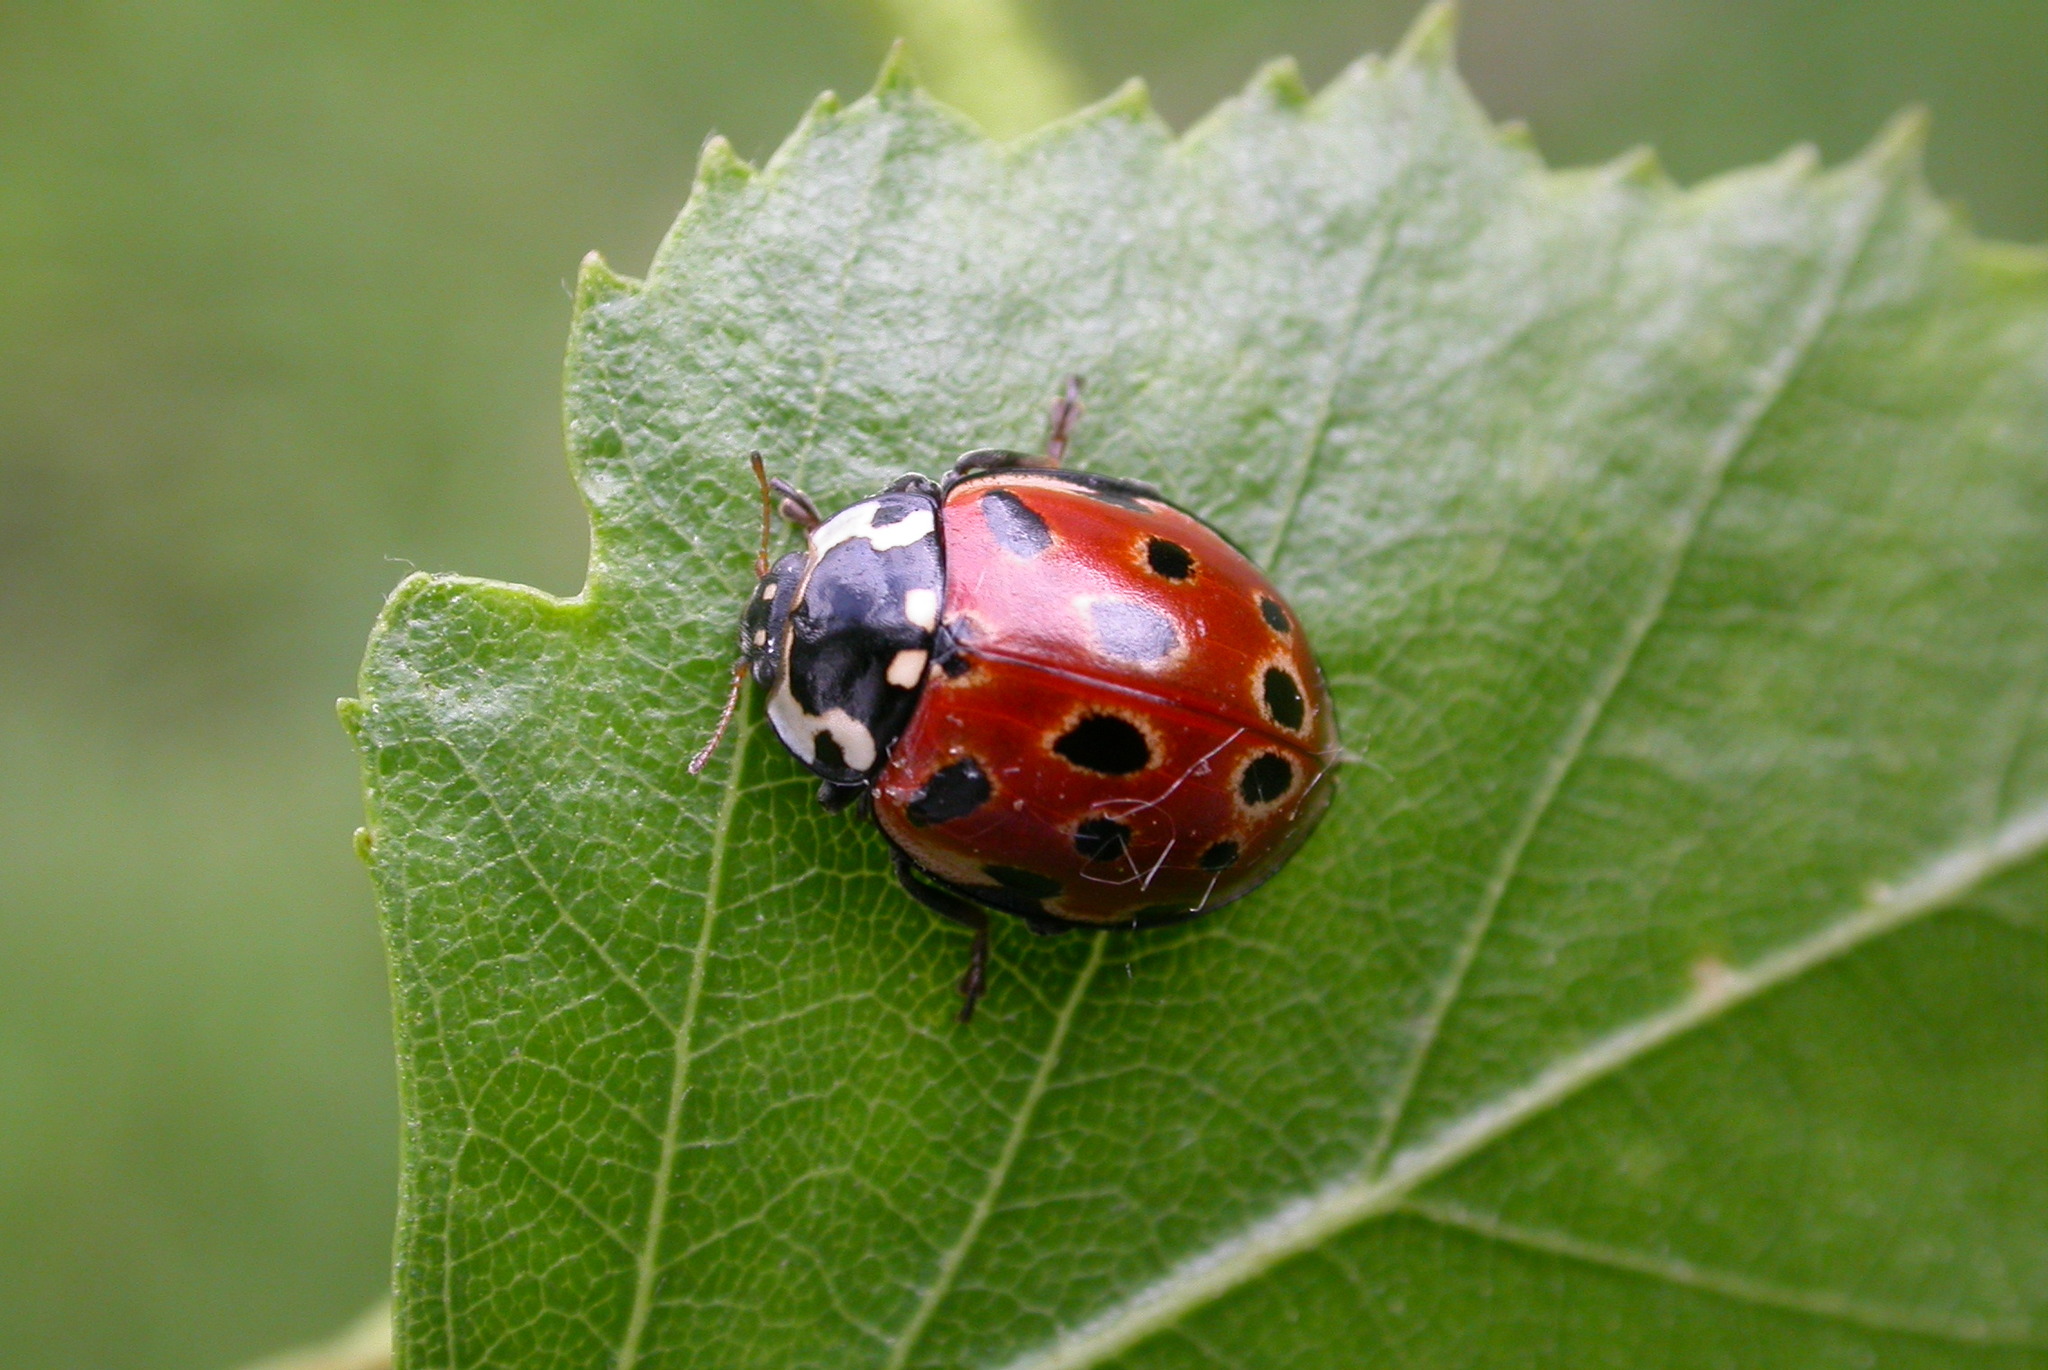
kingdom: Animalia
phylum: Arthropoda
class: Insecta
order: Coleoptera
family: Coccinellidae
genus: Anatis
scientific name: Anatis ocellata
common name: Eyed ladybird
